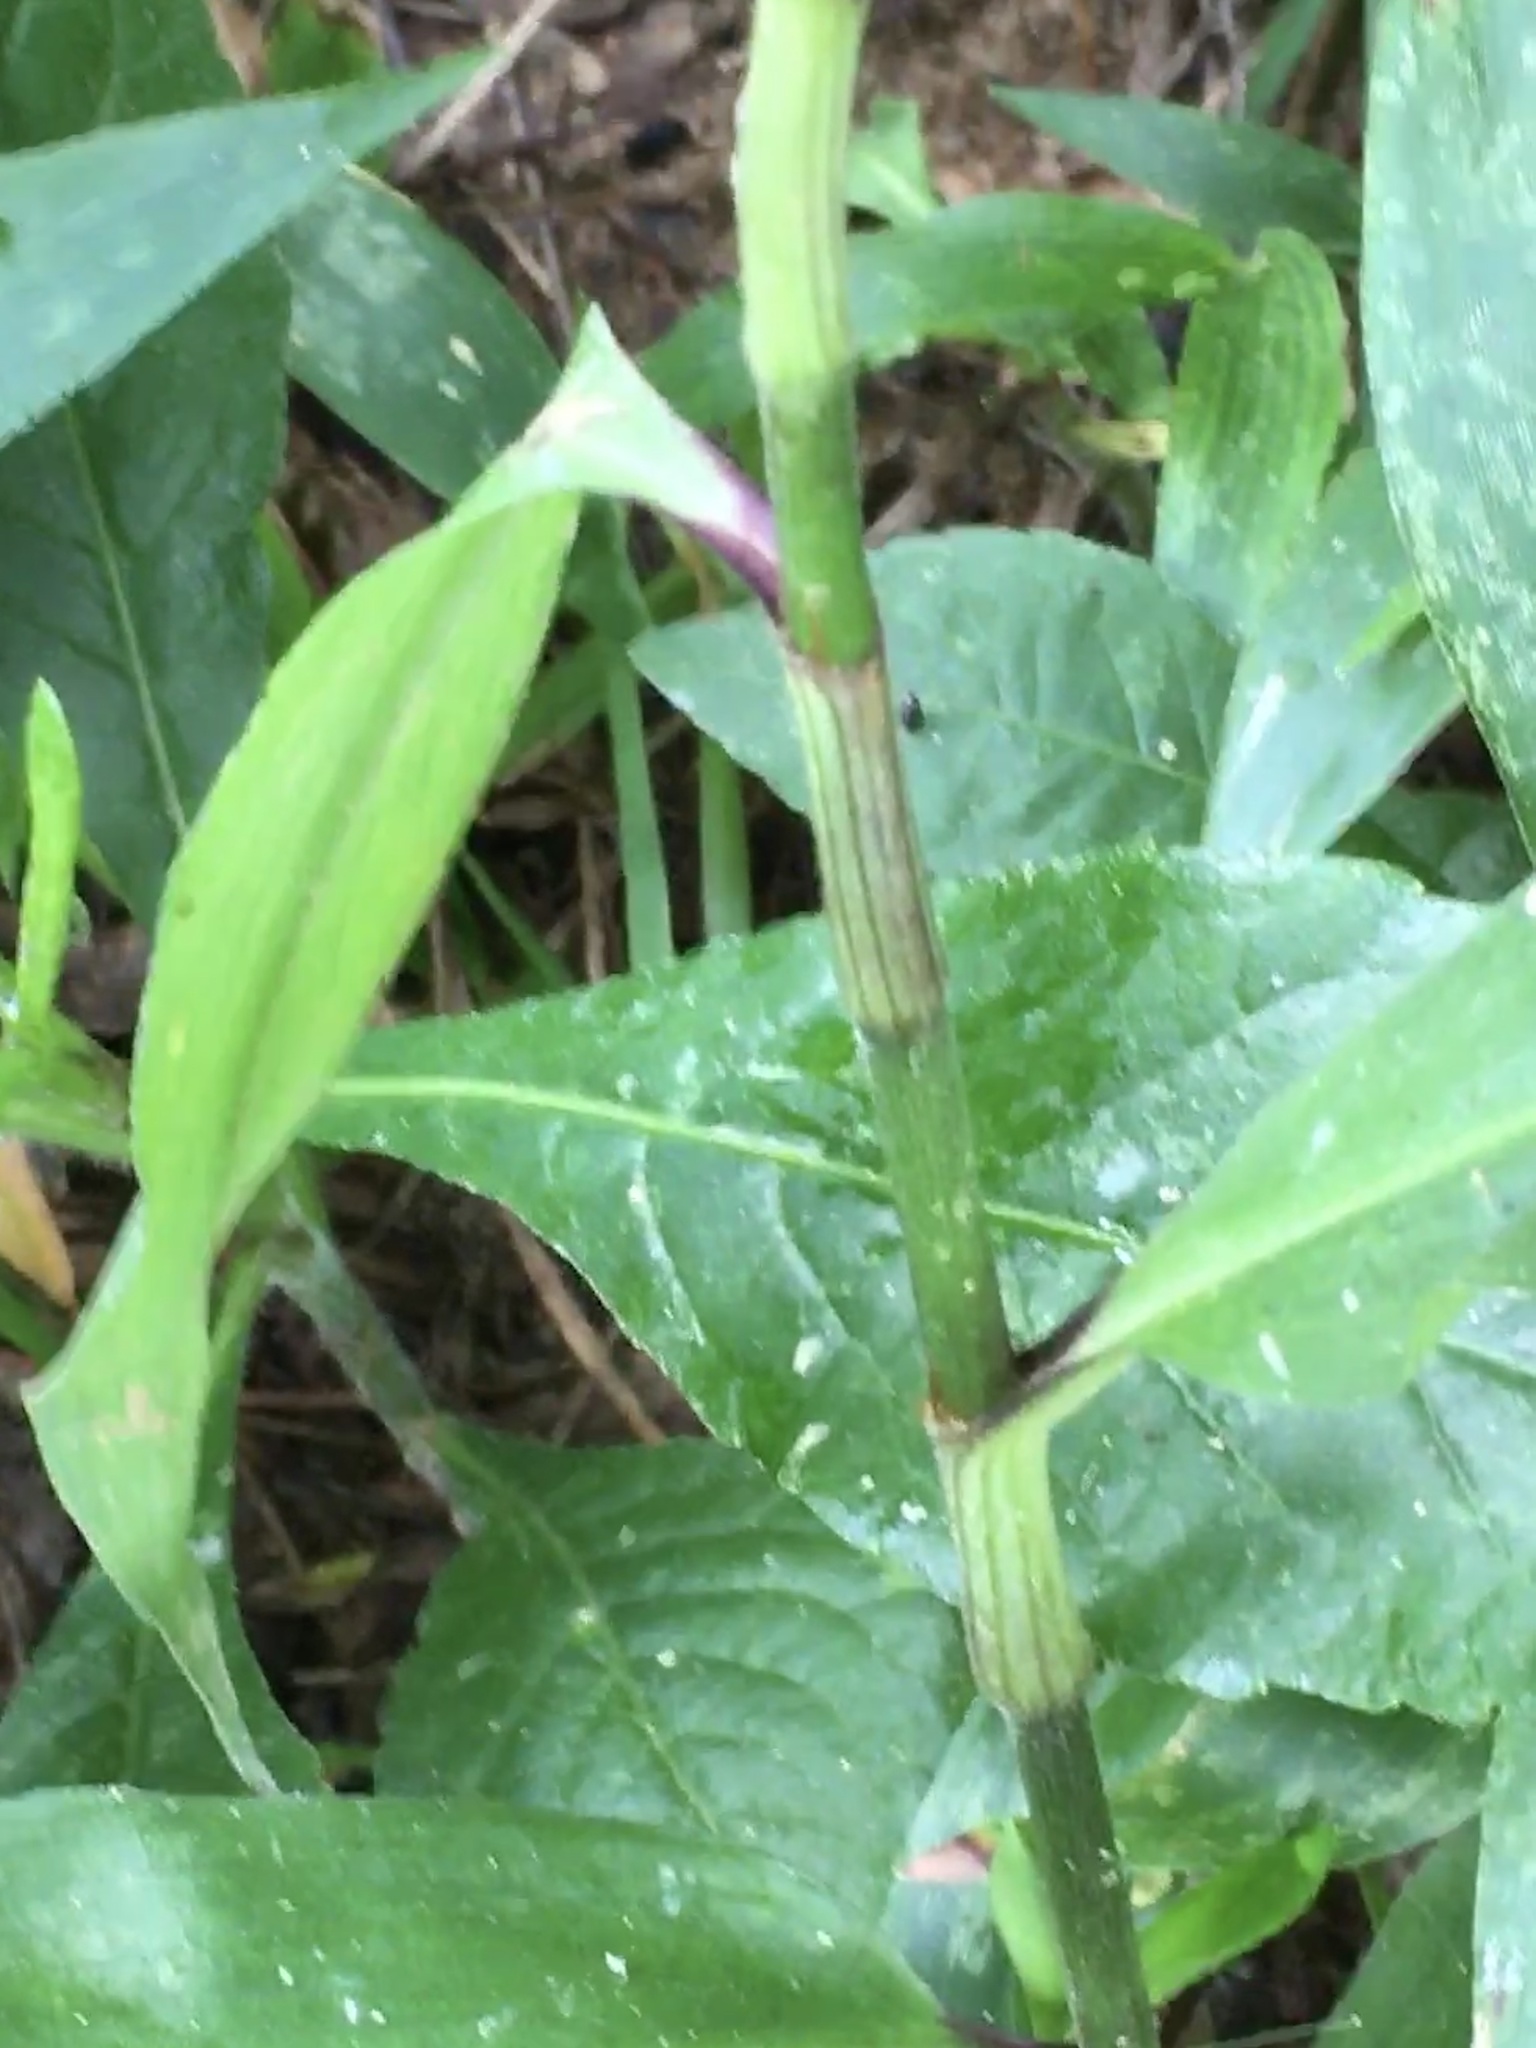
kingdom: Plantae
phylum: Tracheophyta
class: Liliopsida
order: Commelinales
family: Commelinaceae
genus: Commelina
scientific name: Commelina virginica
